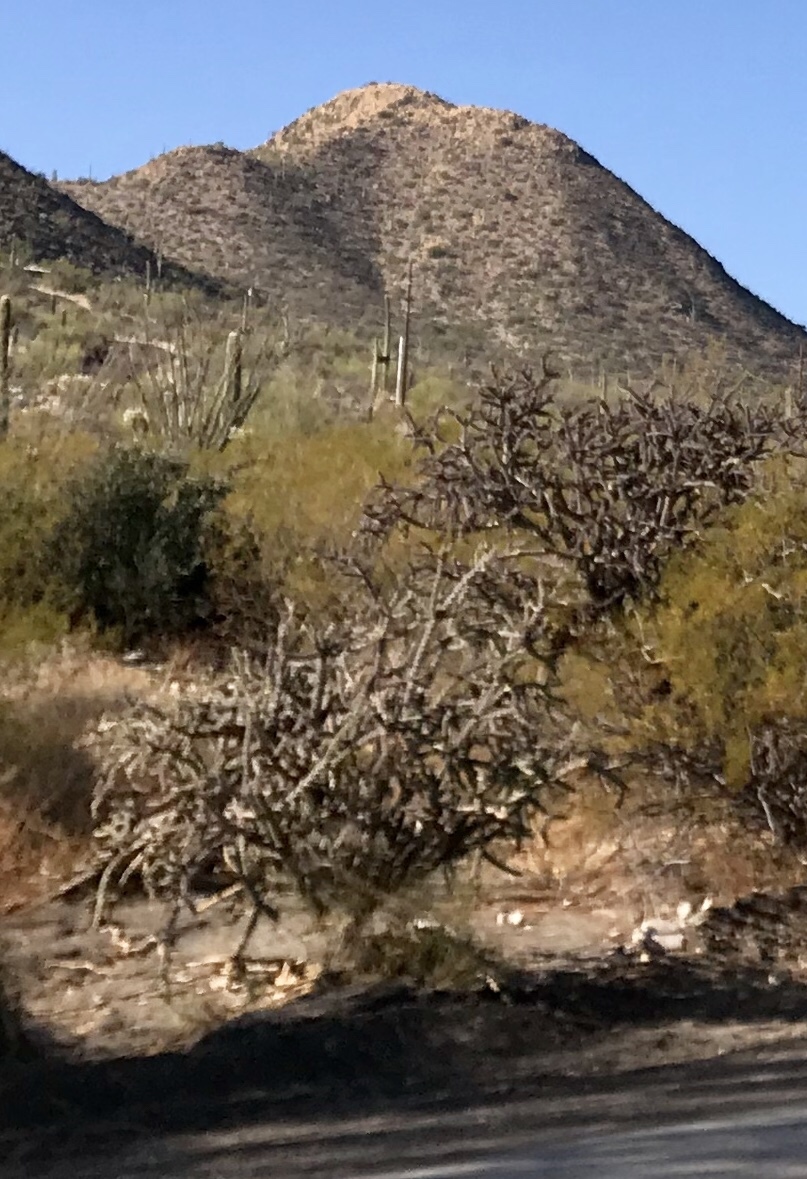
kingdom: Plantae
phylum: Tracheophyta
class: Magnoliopsida
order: Caryophyllales
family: Cactaceae
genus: Cylindropuntia
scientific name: Cylindropuntia thurberi
